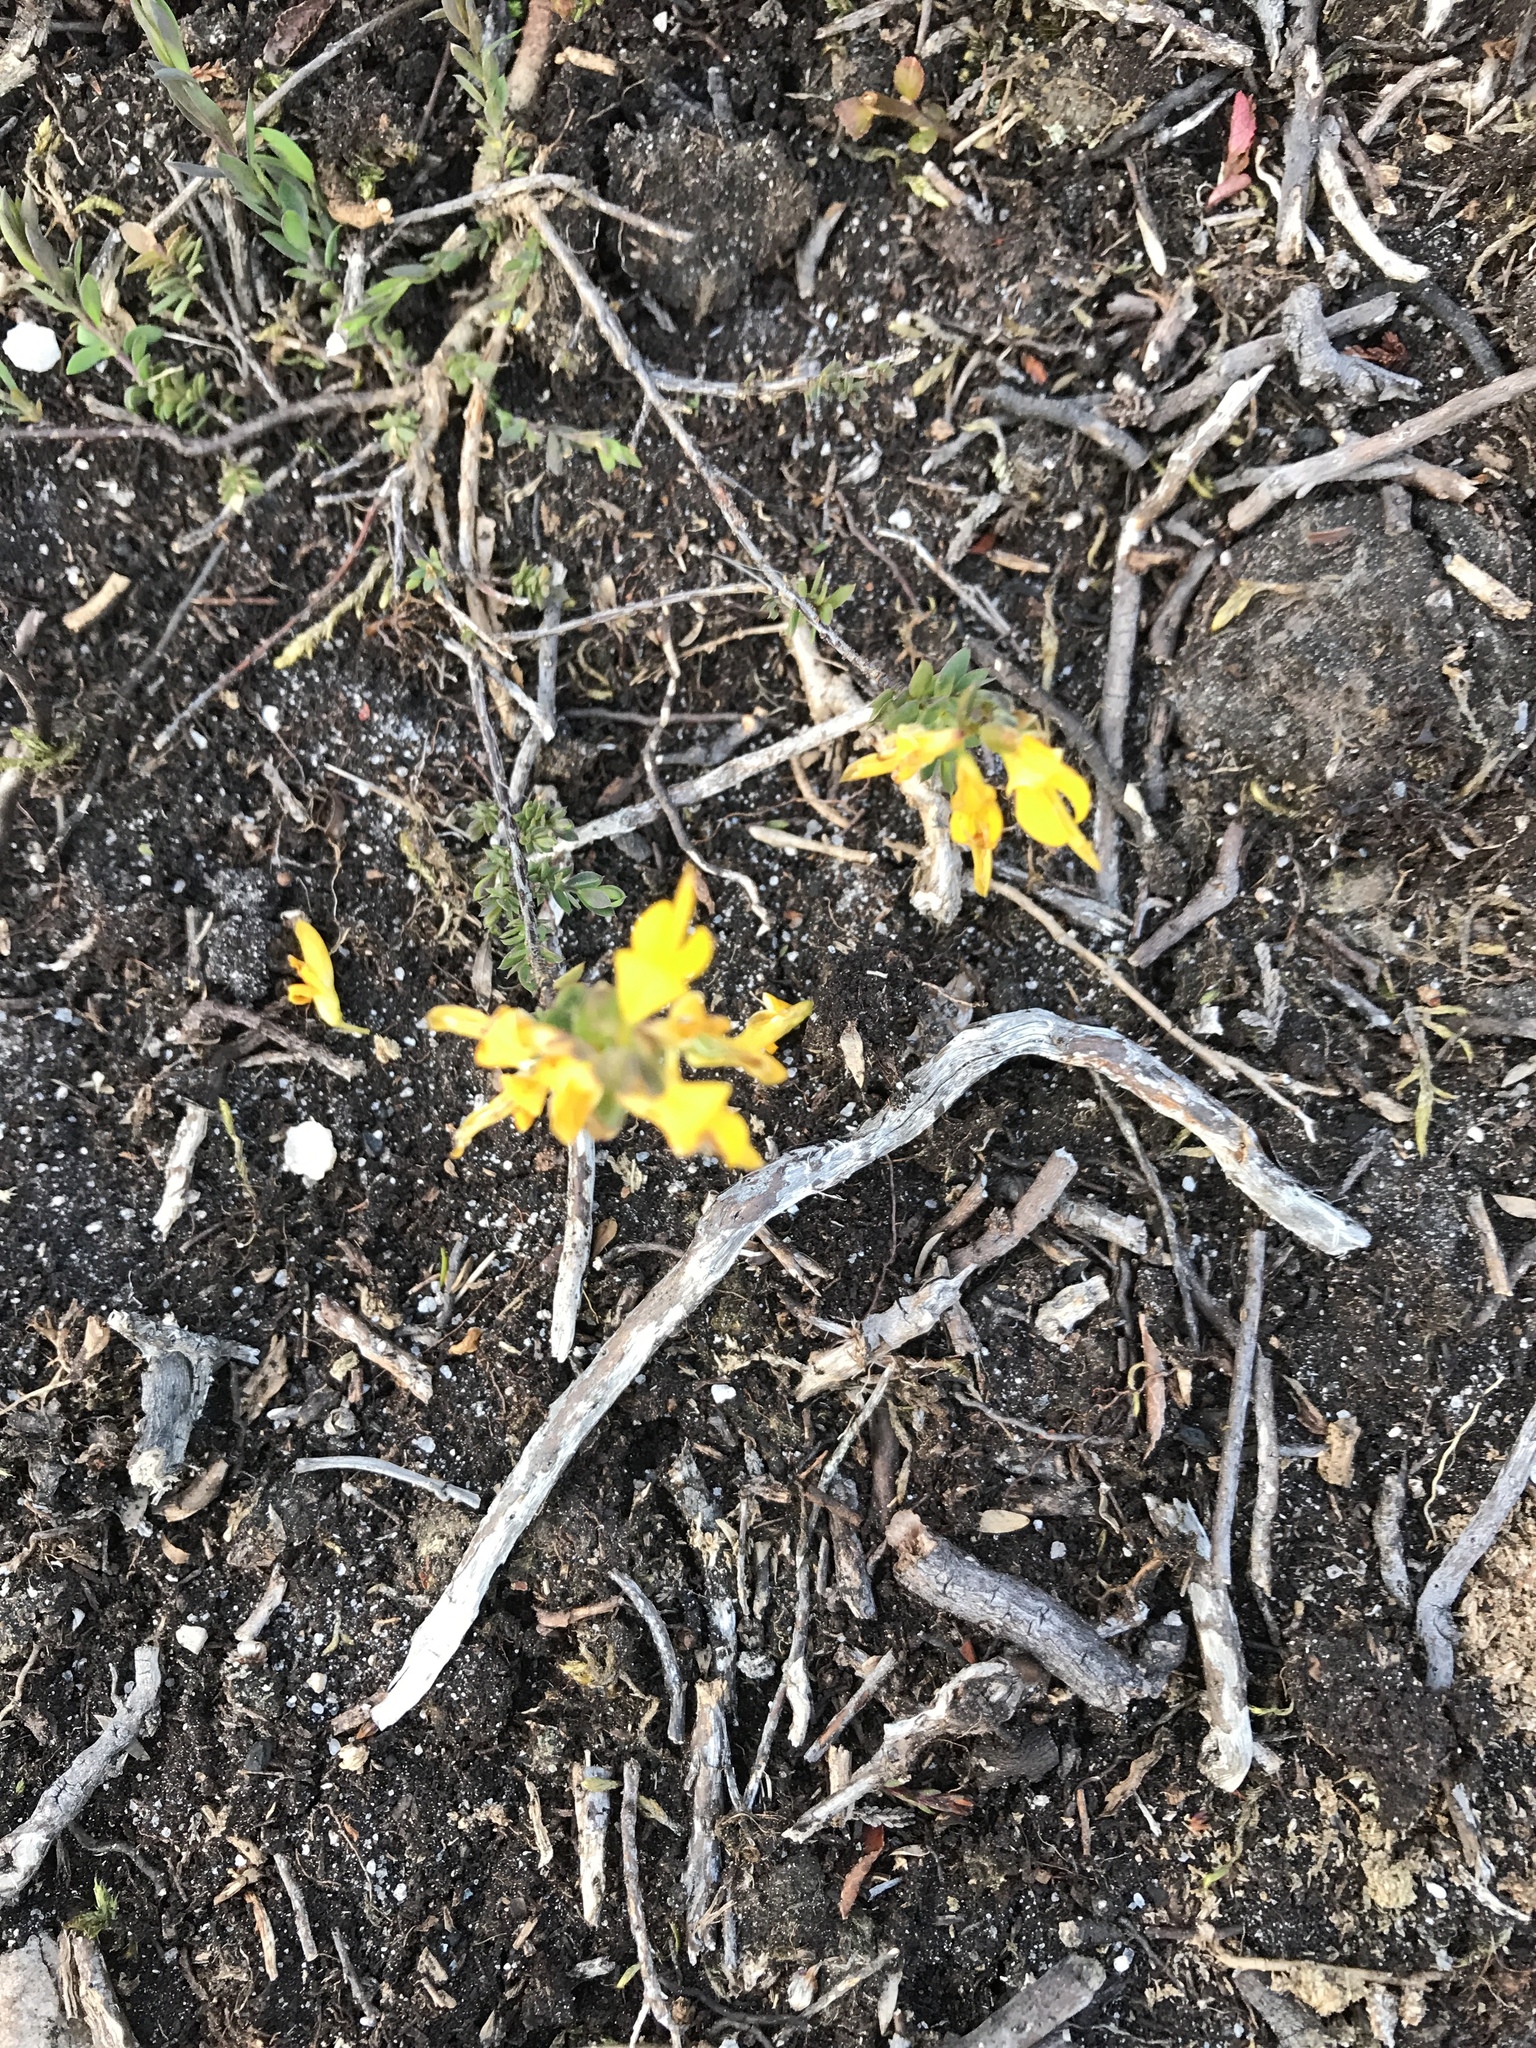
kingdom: Plantae
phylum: Tracheophyta
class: Magnoliopsida
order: Fabales
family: Fabaceae
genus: Genista
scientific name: Genista anglica
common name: Petty whin
